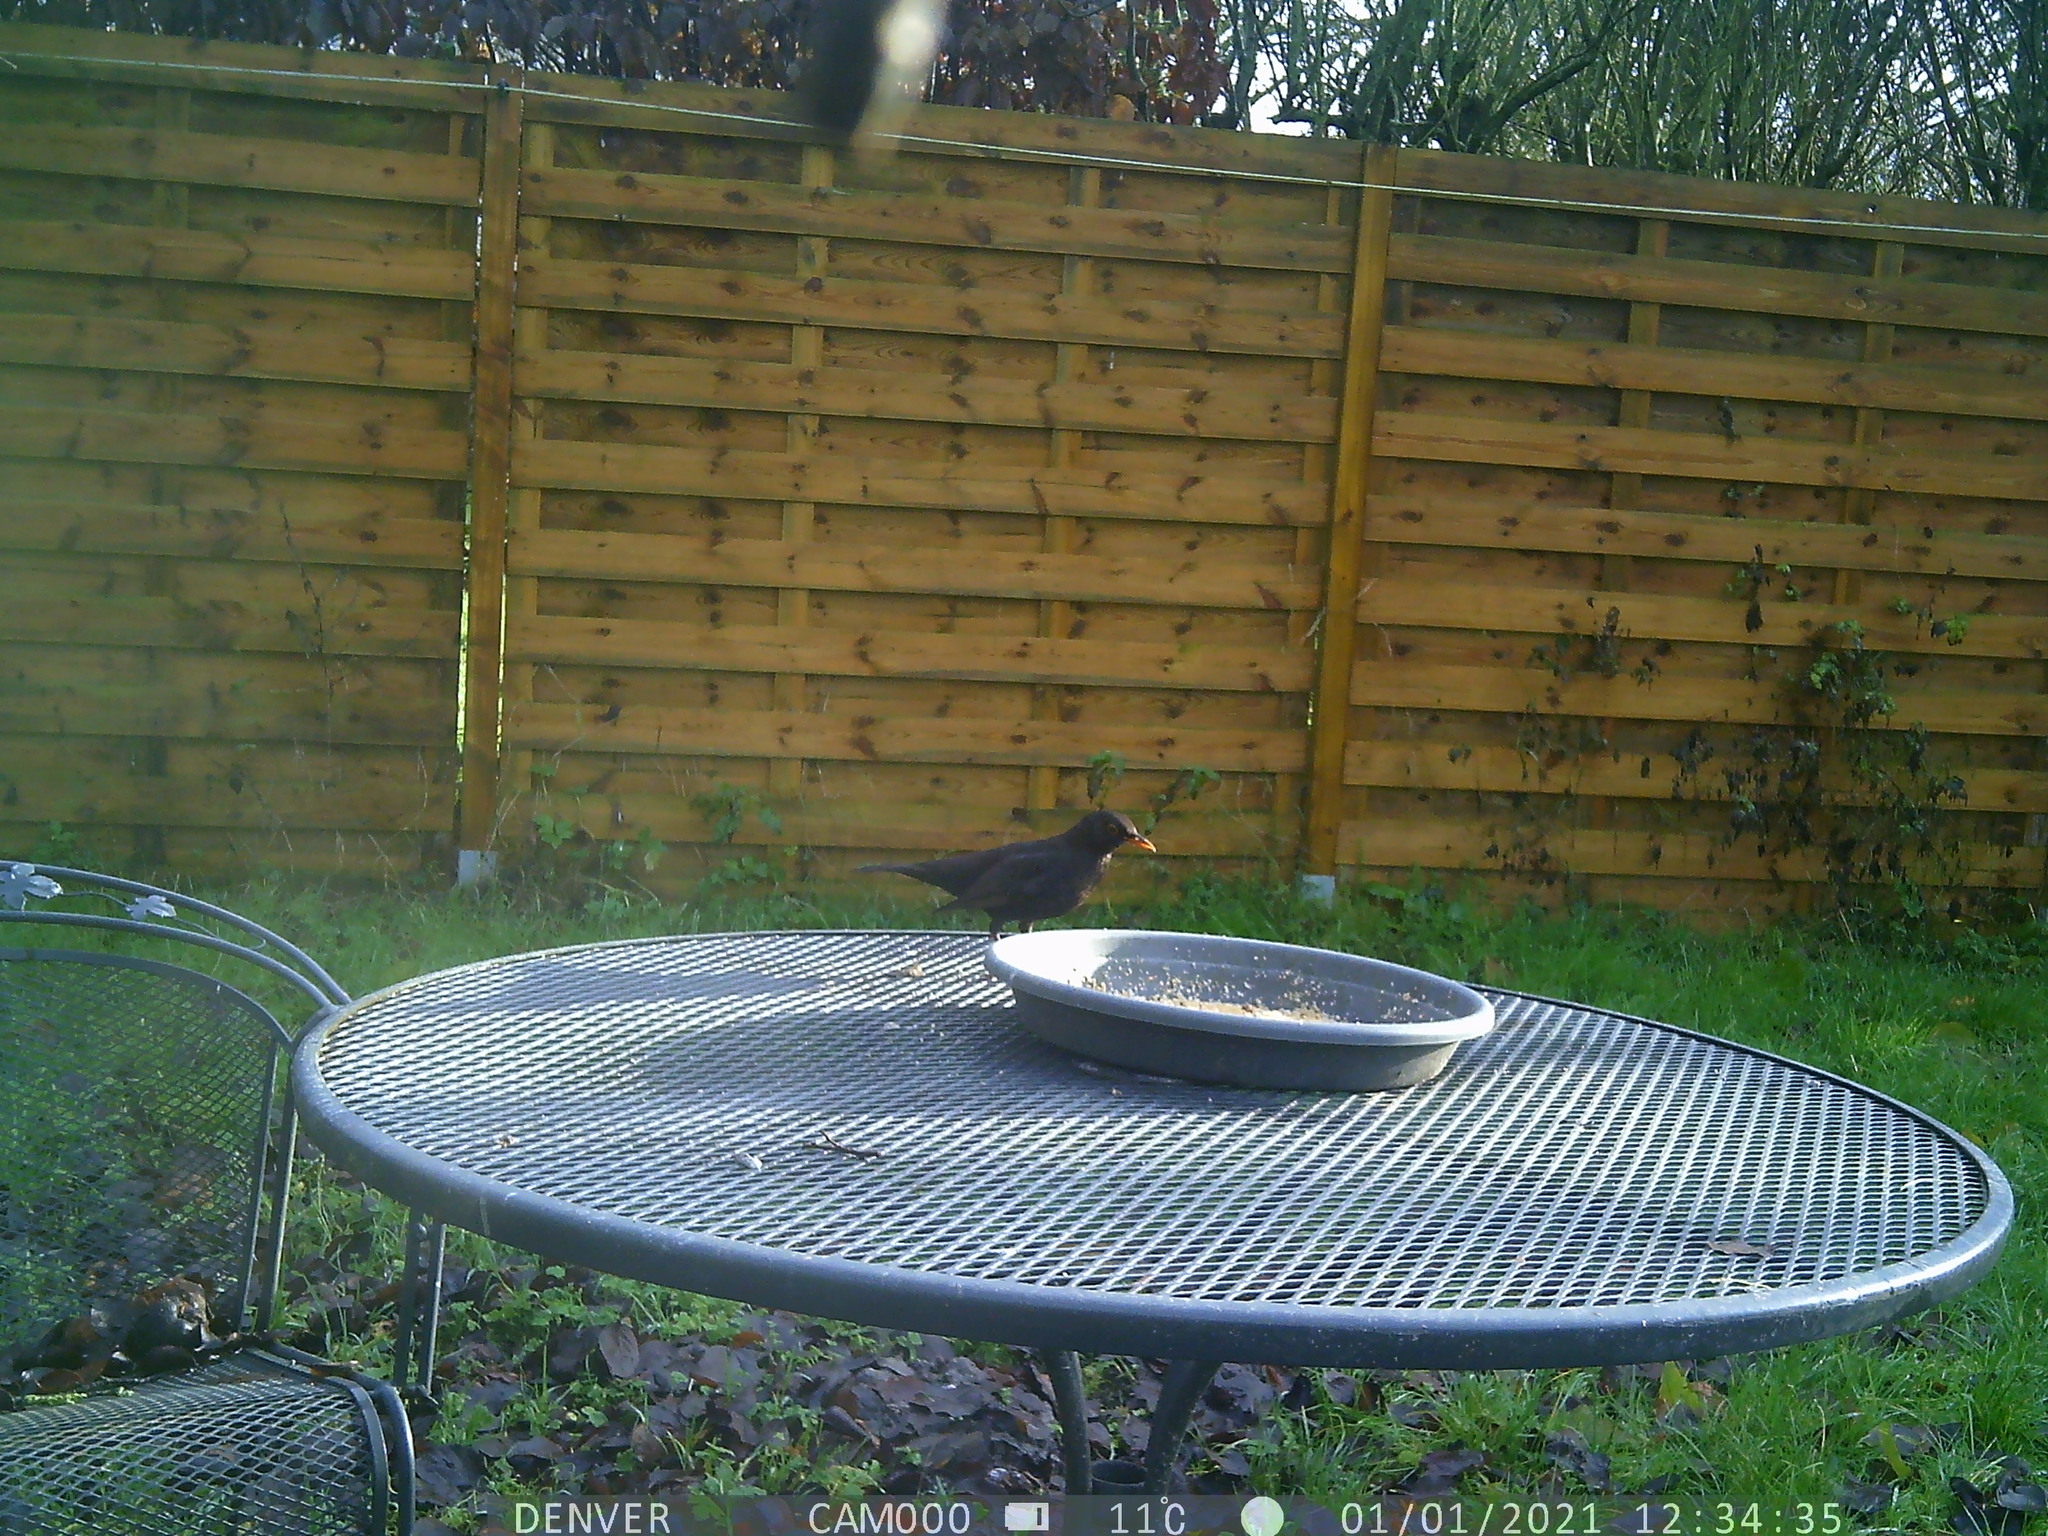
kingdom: Animalia
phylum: Chordata
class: Aves
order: Passeriformes
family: Turdidae
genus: Turdus
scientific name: Turdus merula
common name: Common blackbird
